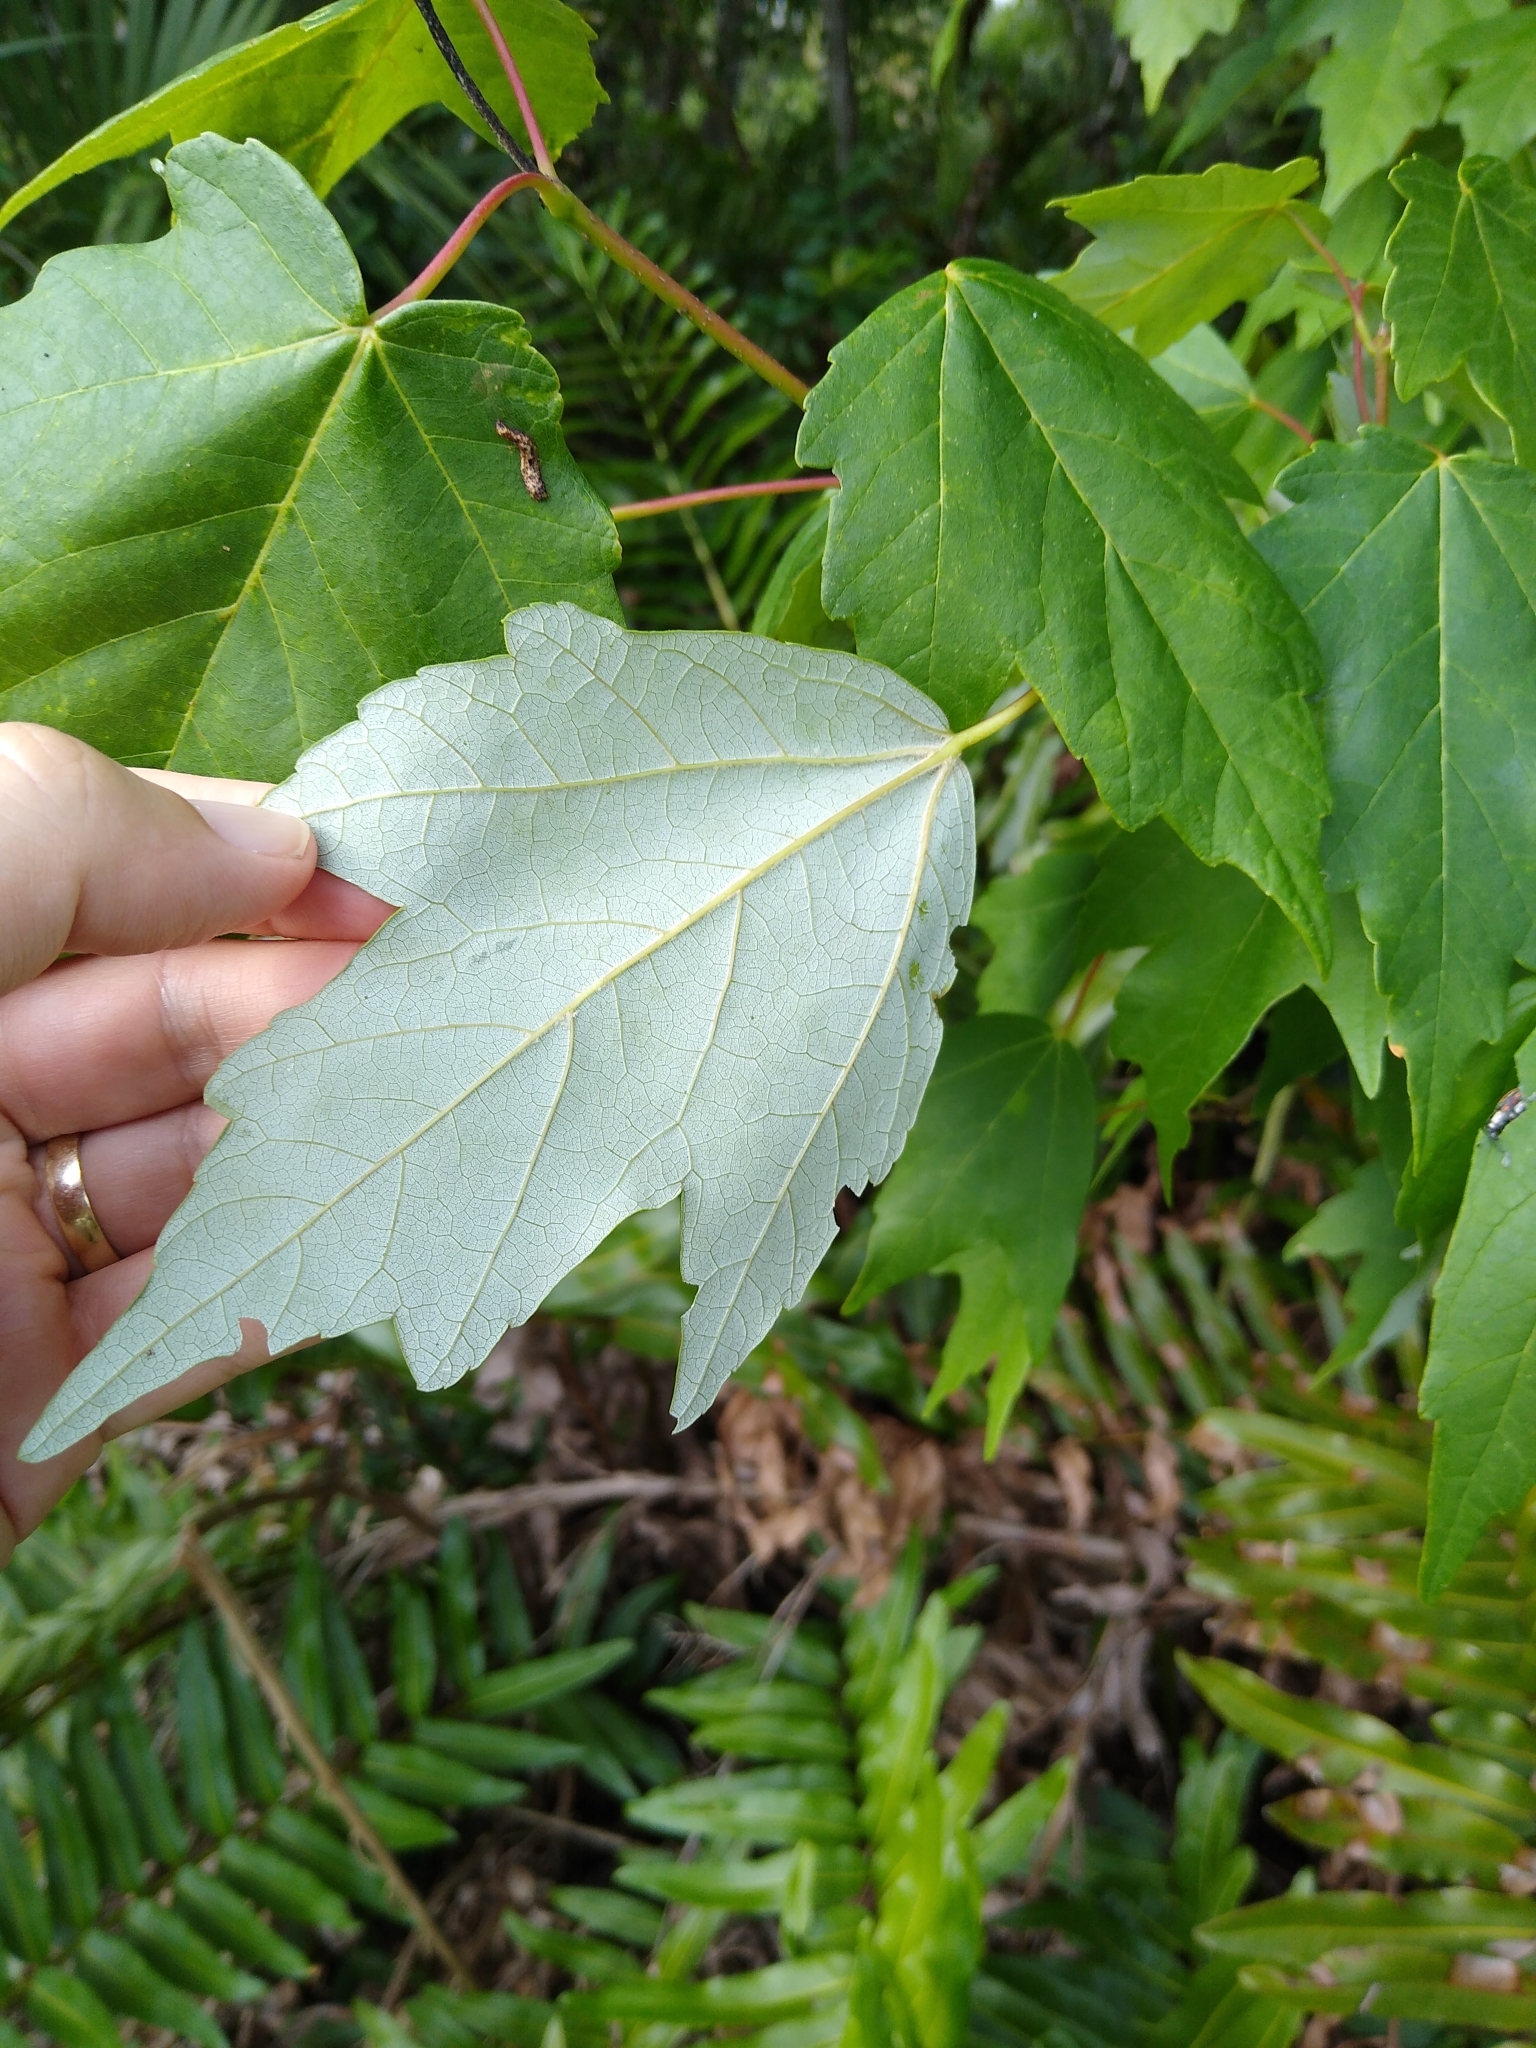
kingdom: Plantae
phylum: Tracheophyta
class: Magnoliopsida
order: Sapindales
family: Sapindaceae
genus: Acer
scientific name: Acer rubrum
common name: Red maple
